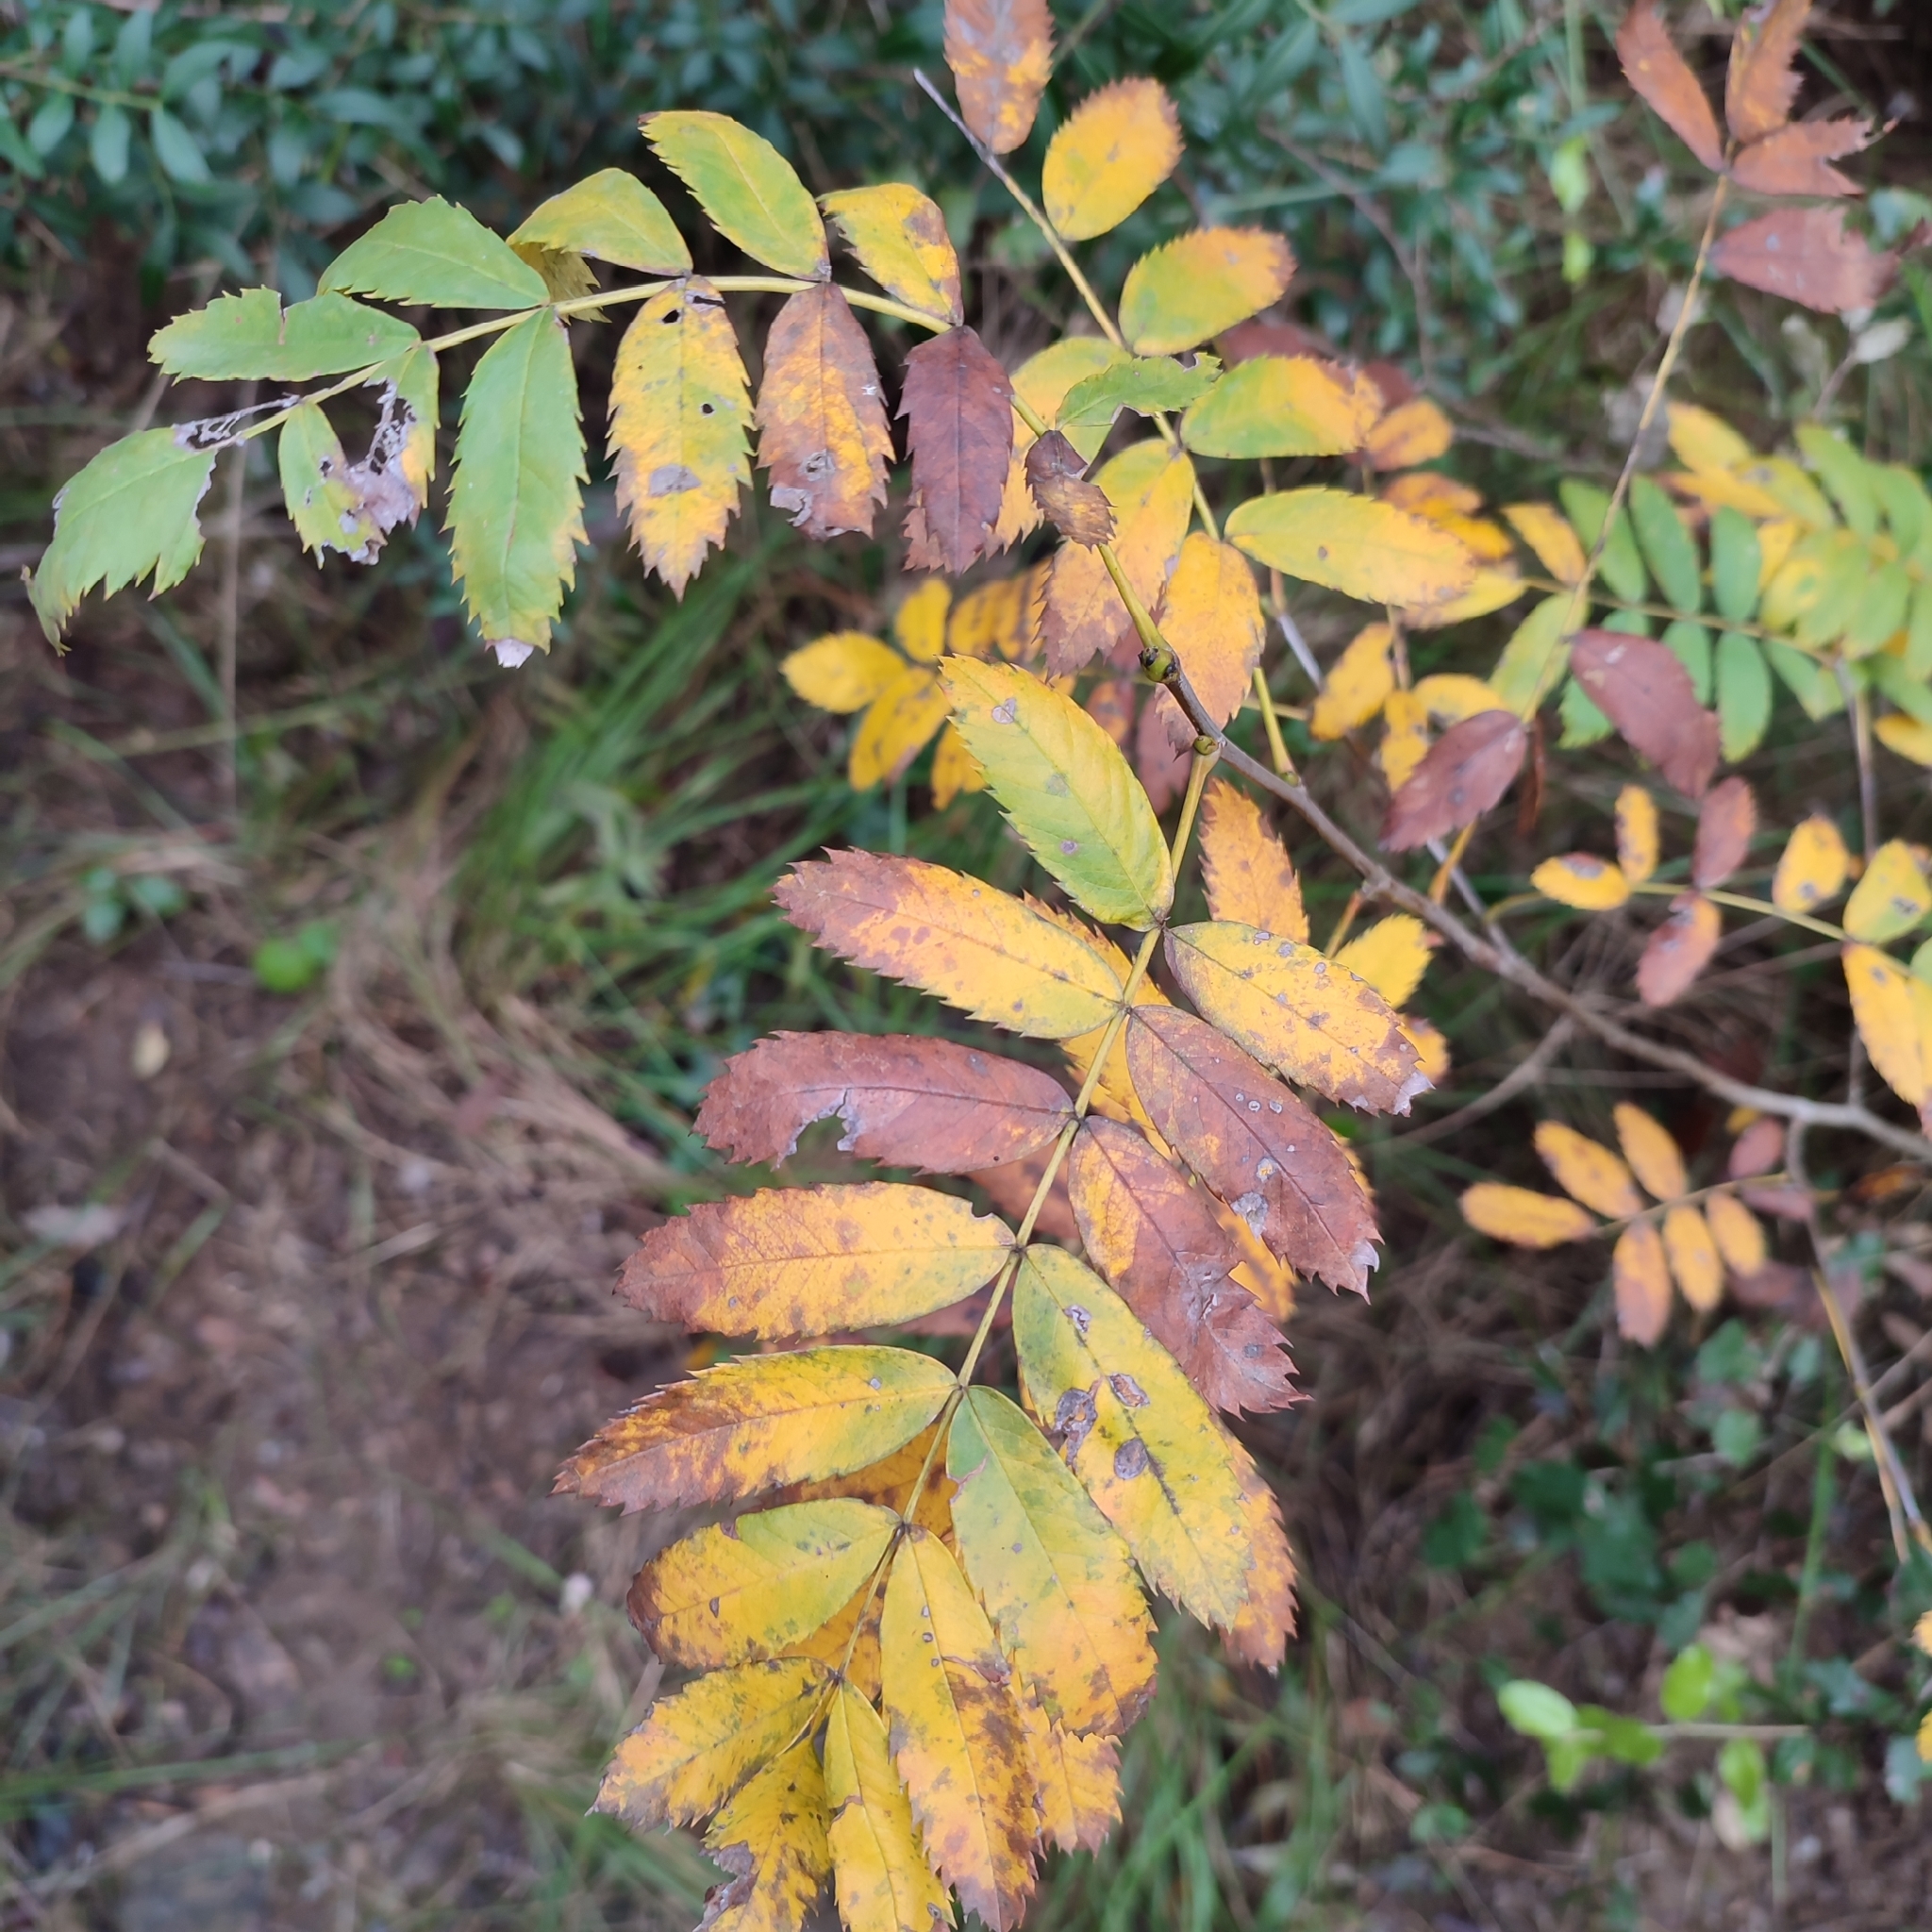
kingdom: Plantae
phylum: Tracheophyta
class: Magnoliopsida
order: Rosales
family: Rosaceae
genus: Sorbus
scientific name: Sorbus aucuparia
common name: Rowan
